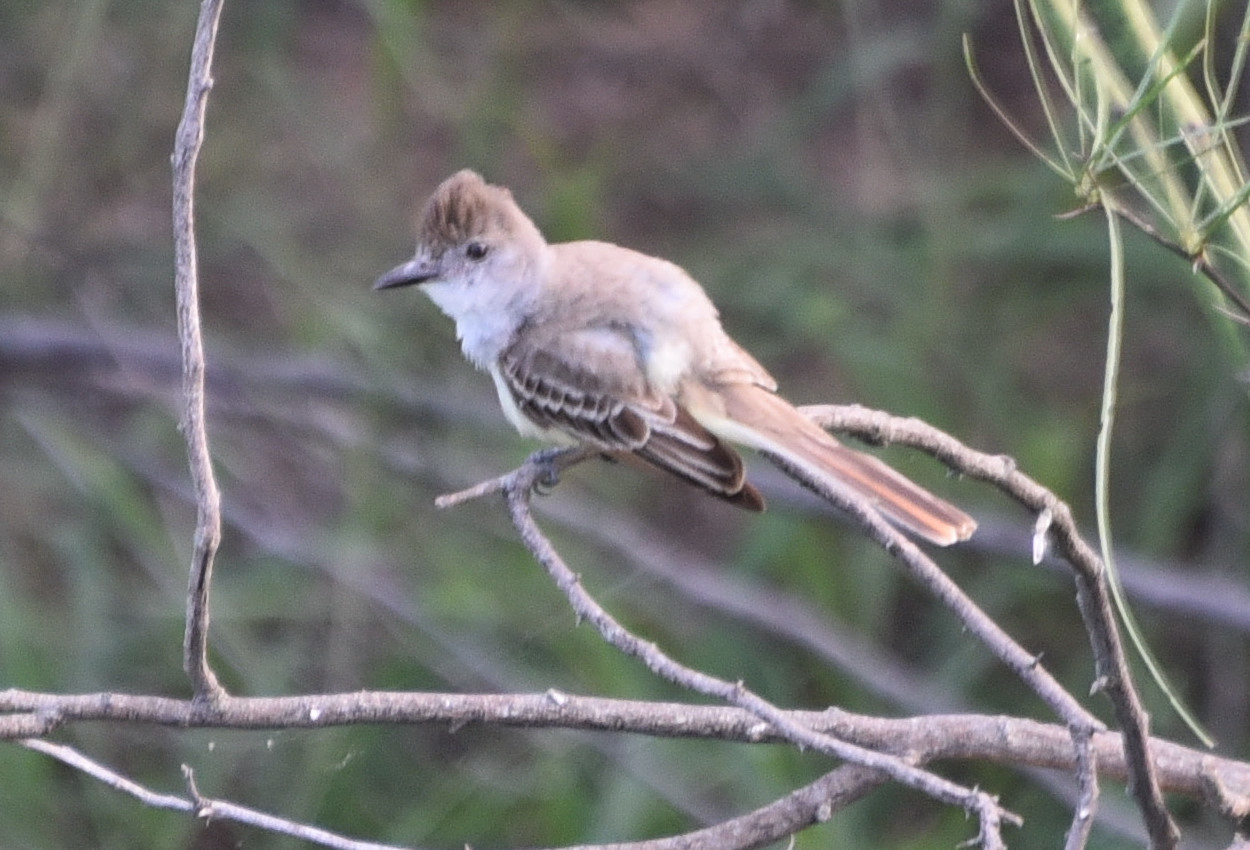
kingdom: Animalia
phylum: Chordata
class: Aves
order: Passeriformes
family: Tyrannidae
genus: Myiarchus
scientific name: Myiarchus tyrannulus
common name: Brown-crested flycatcher
